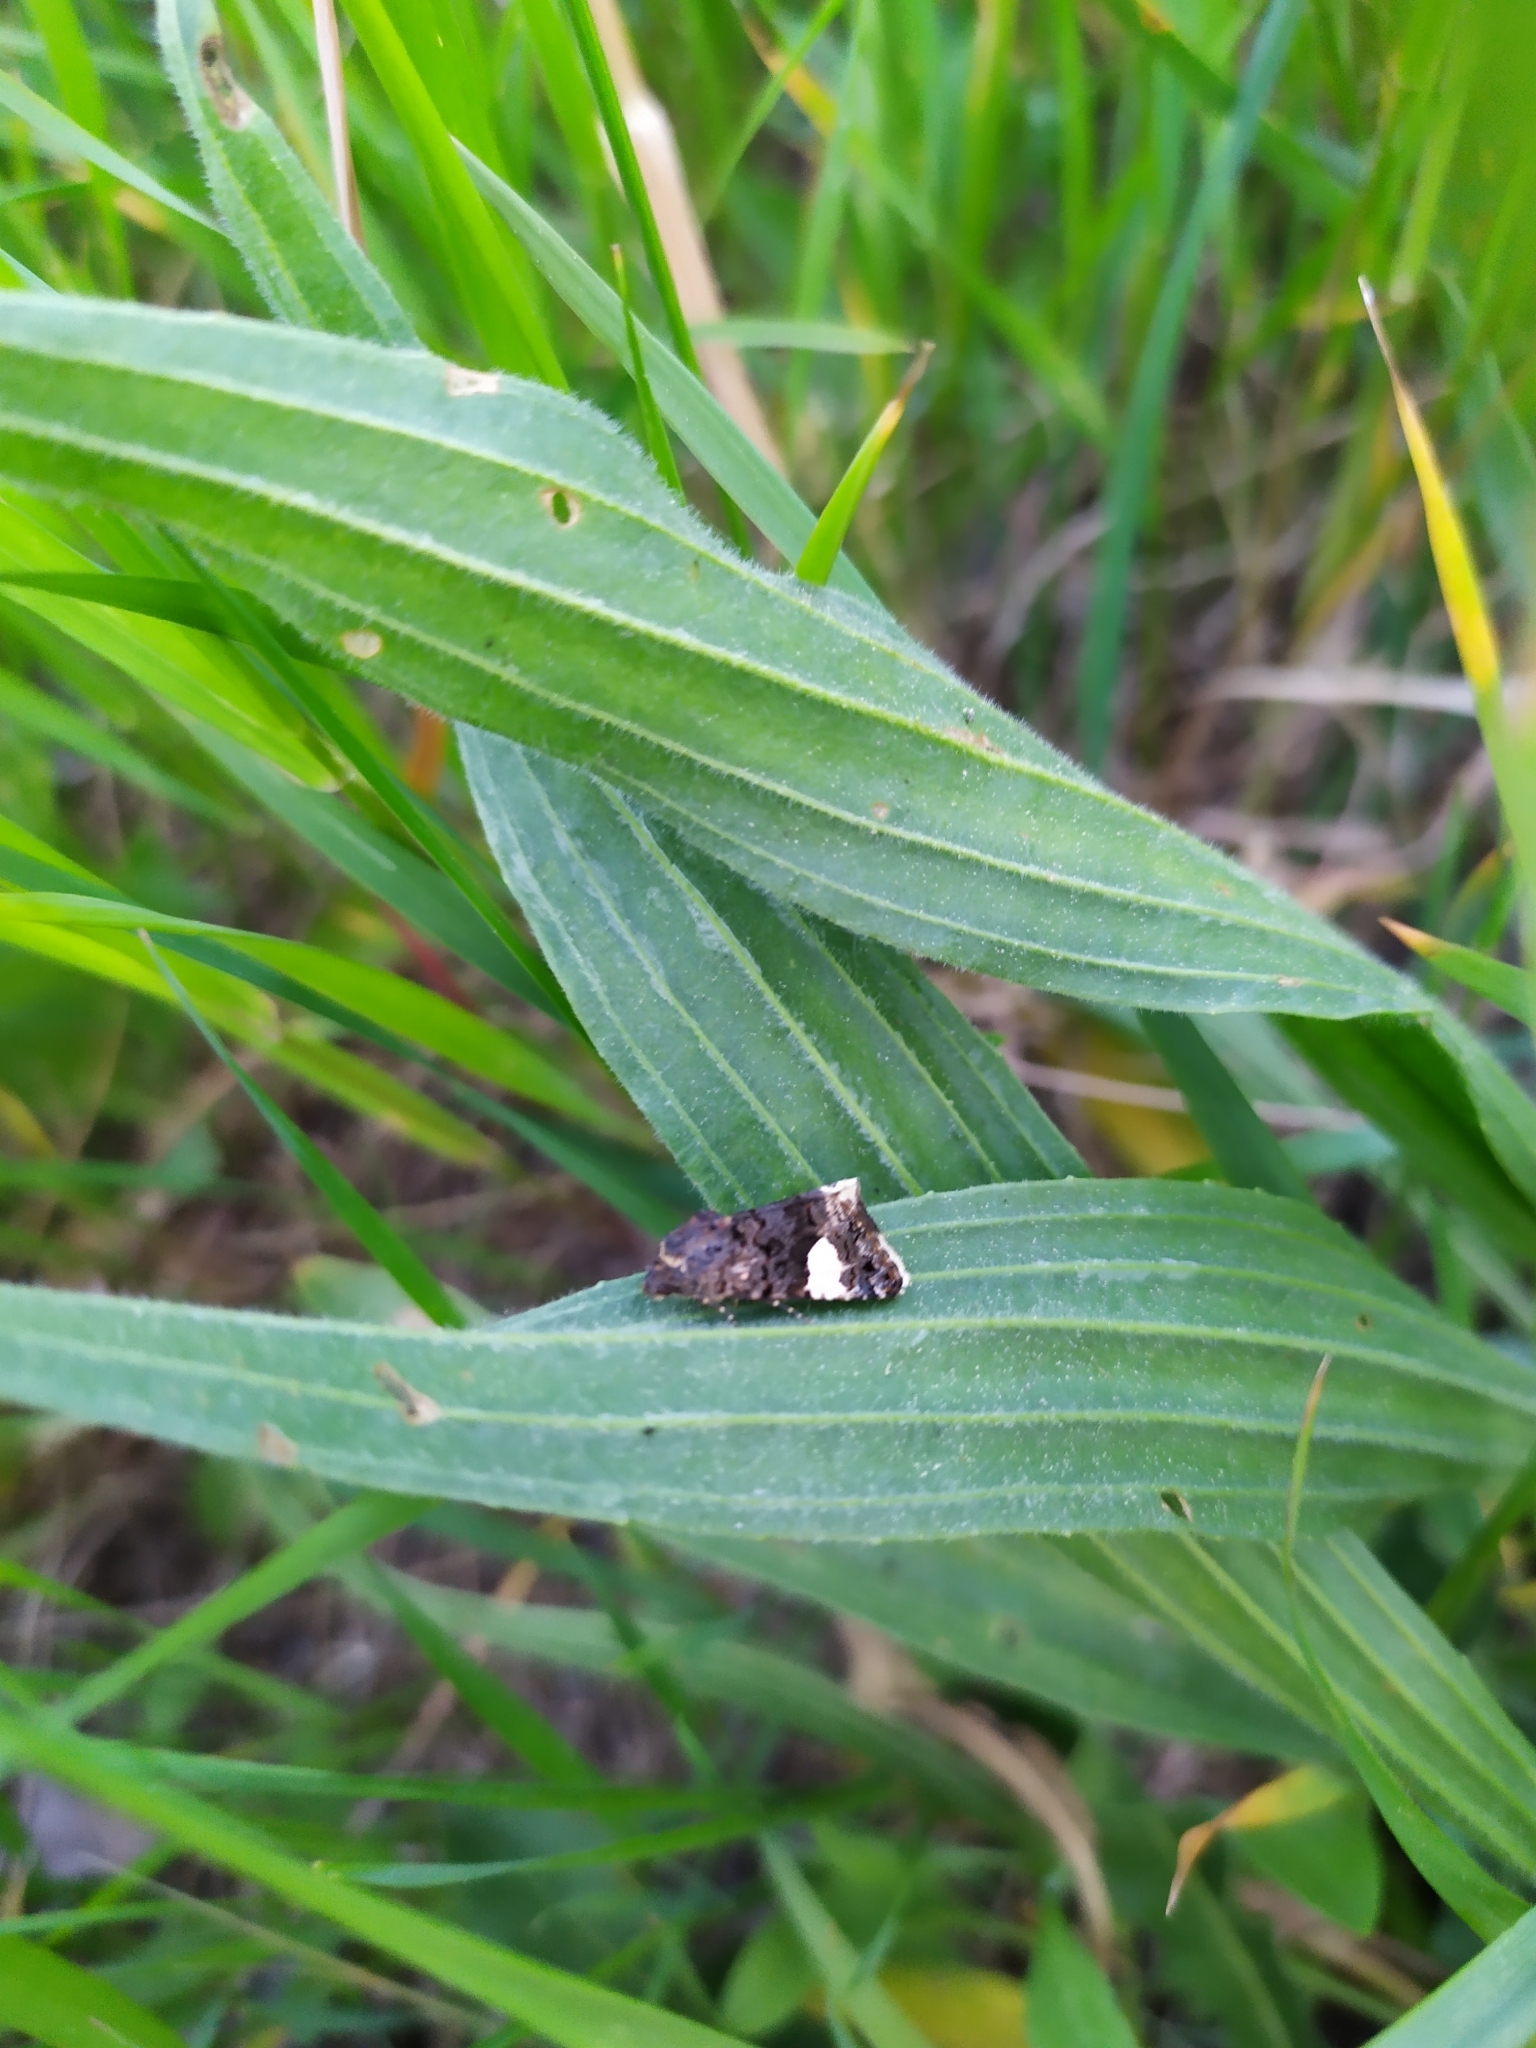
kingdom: Animalia
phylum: Arthropoda
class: Insecta
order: Lepidoptera
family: Erebidae
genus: Tyta
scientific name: Tyta luctuosa
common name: Four-spotted
